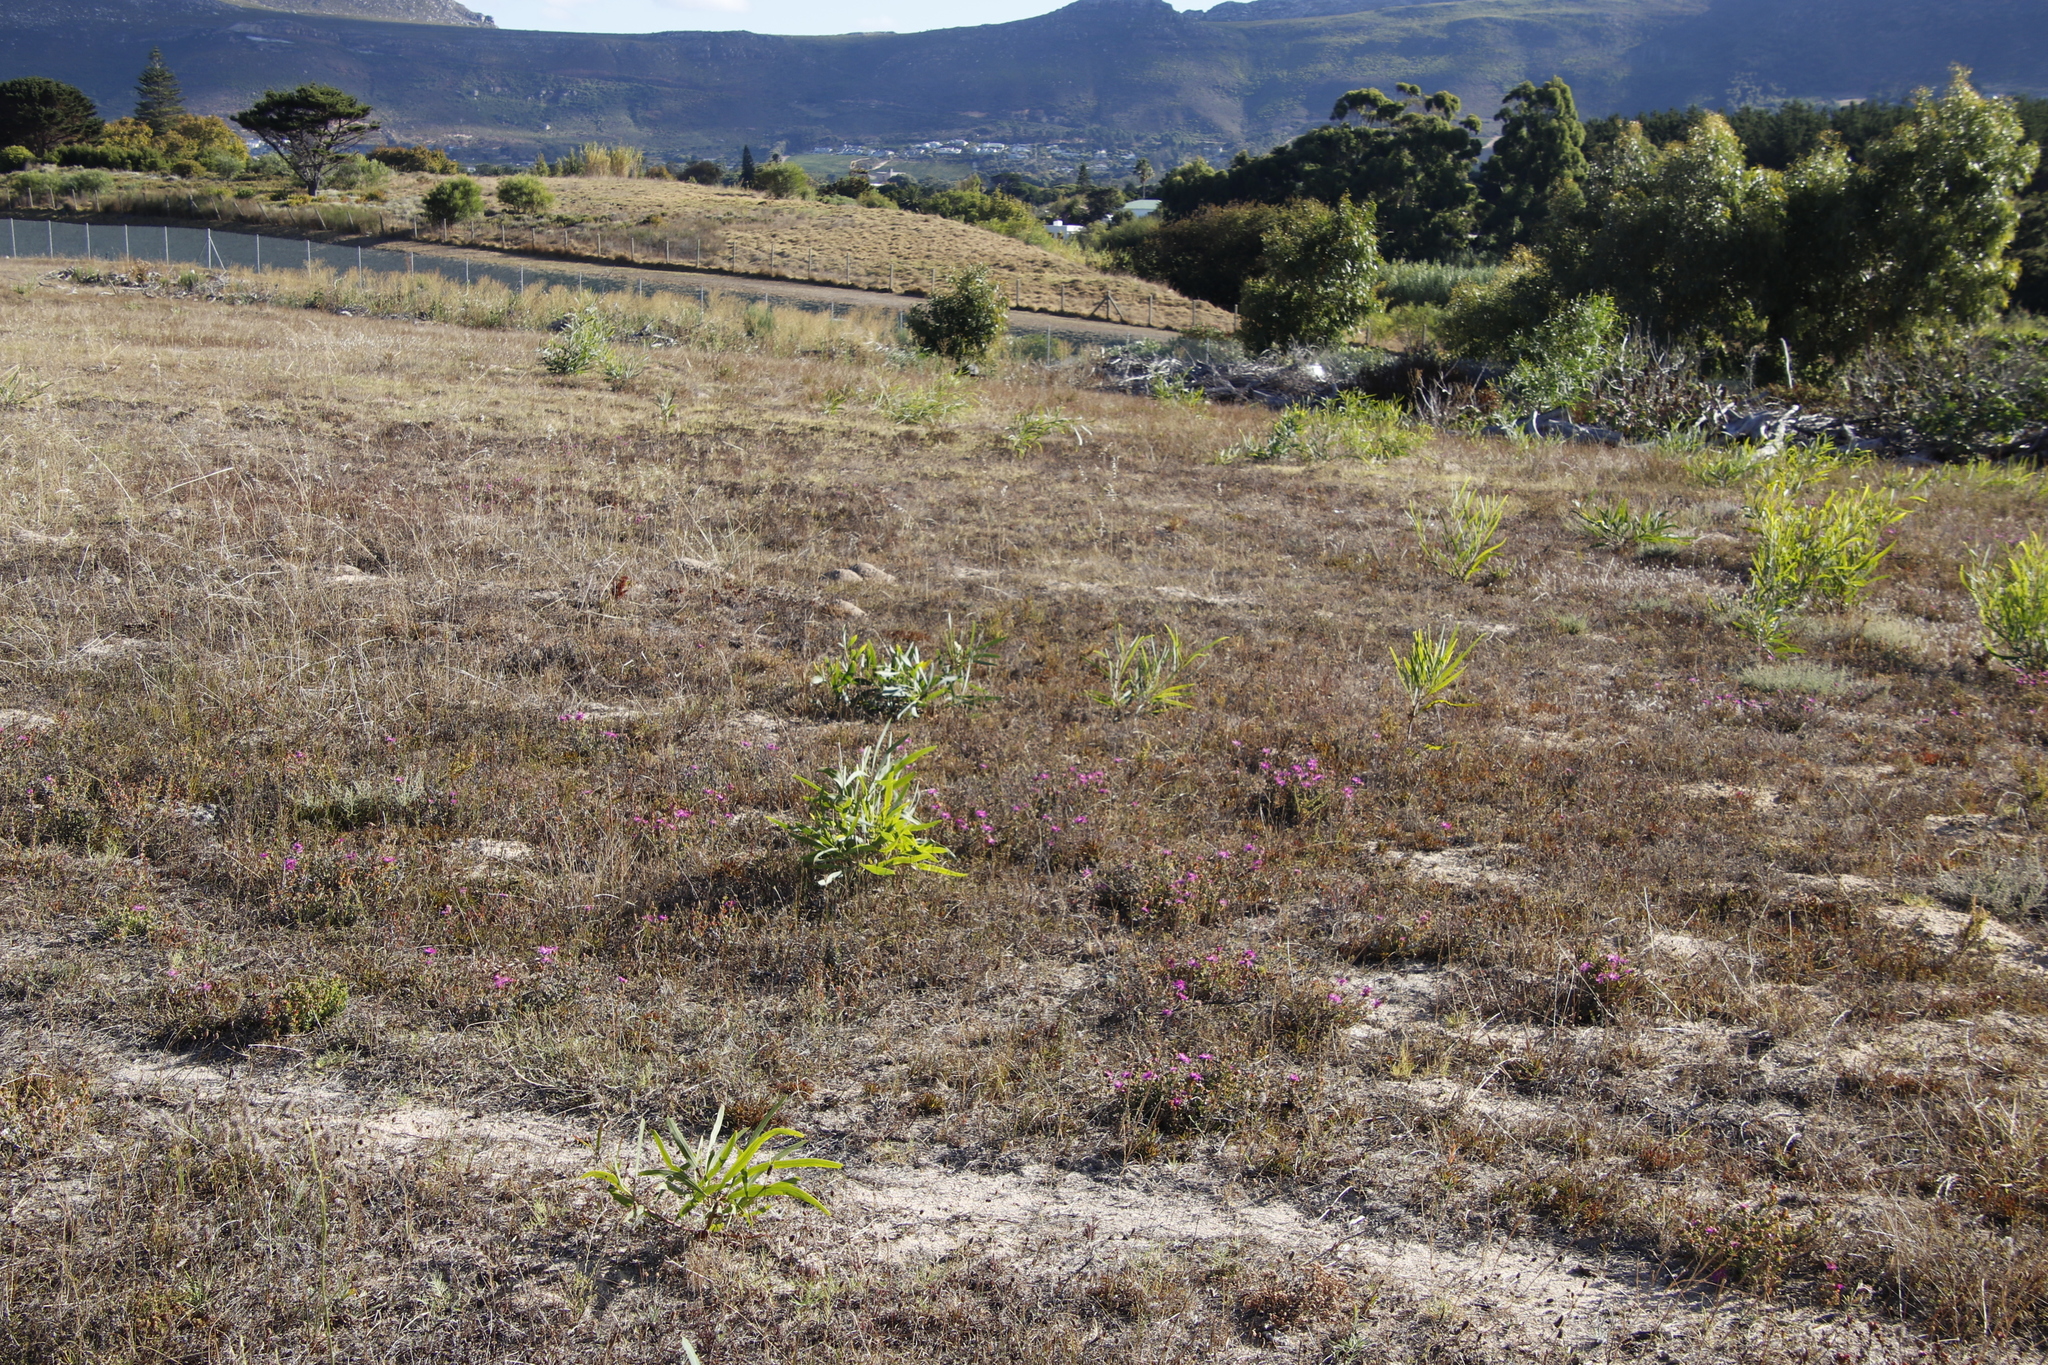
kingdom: Plantae
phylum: Tracheophyta
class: Magnoliopsida
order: Fabales
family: Fabaceae
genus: Acacia
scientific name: Acacia saligna
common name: Orange wattle
